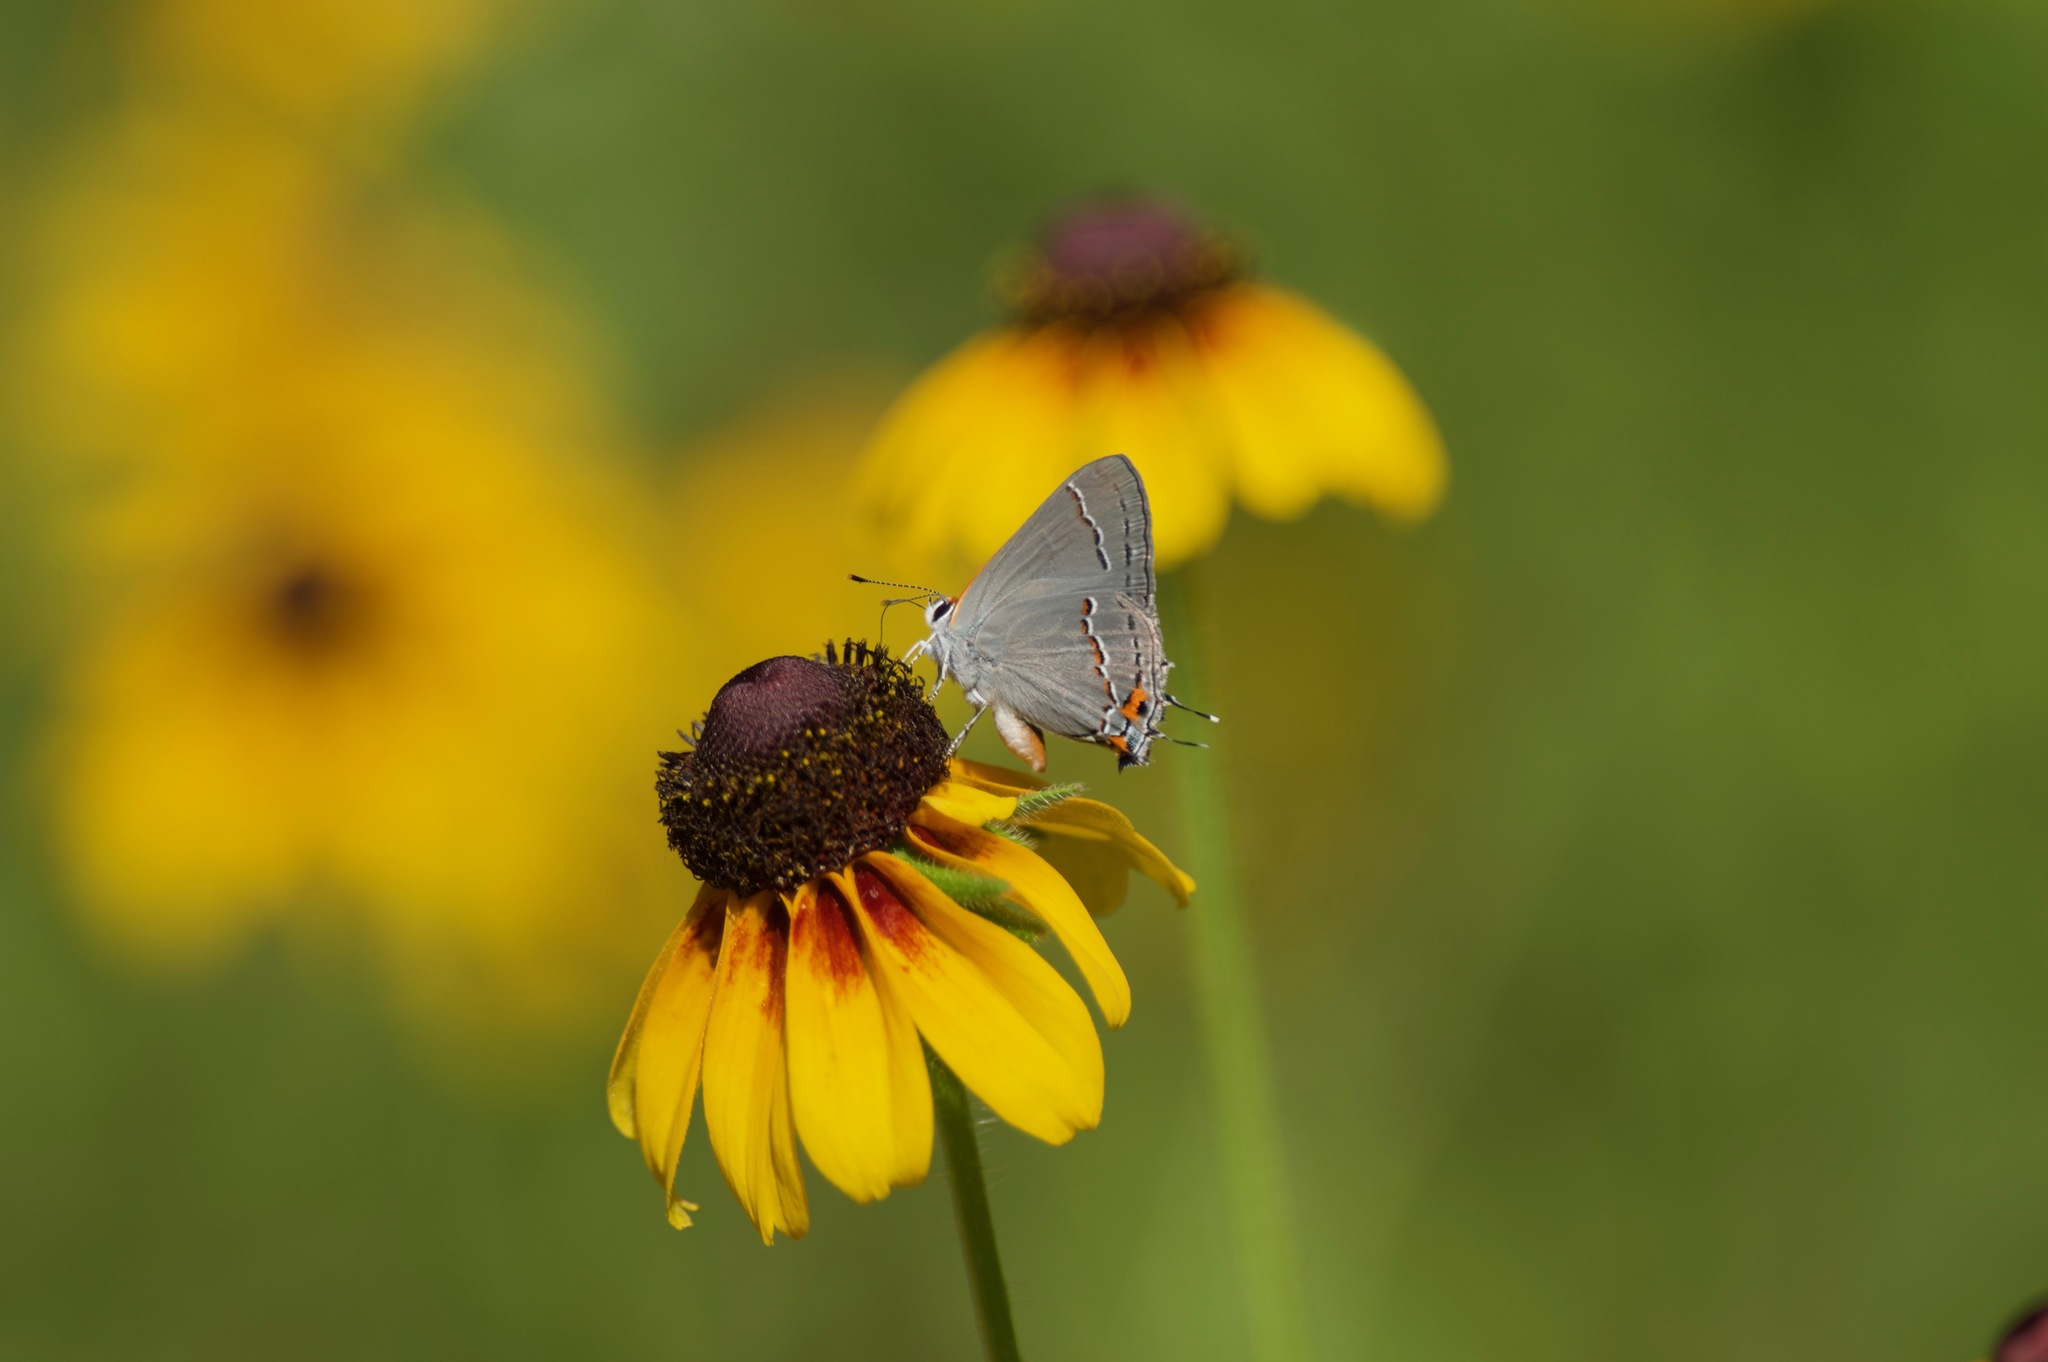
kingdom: Animalia
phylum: Arthropoda
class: Insecta
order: Lepidoptera
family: Lycaenidae
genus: Strymon
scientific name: Strymon melinus
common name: Gray hairstreak
